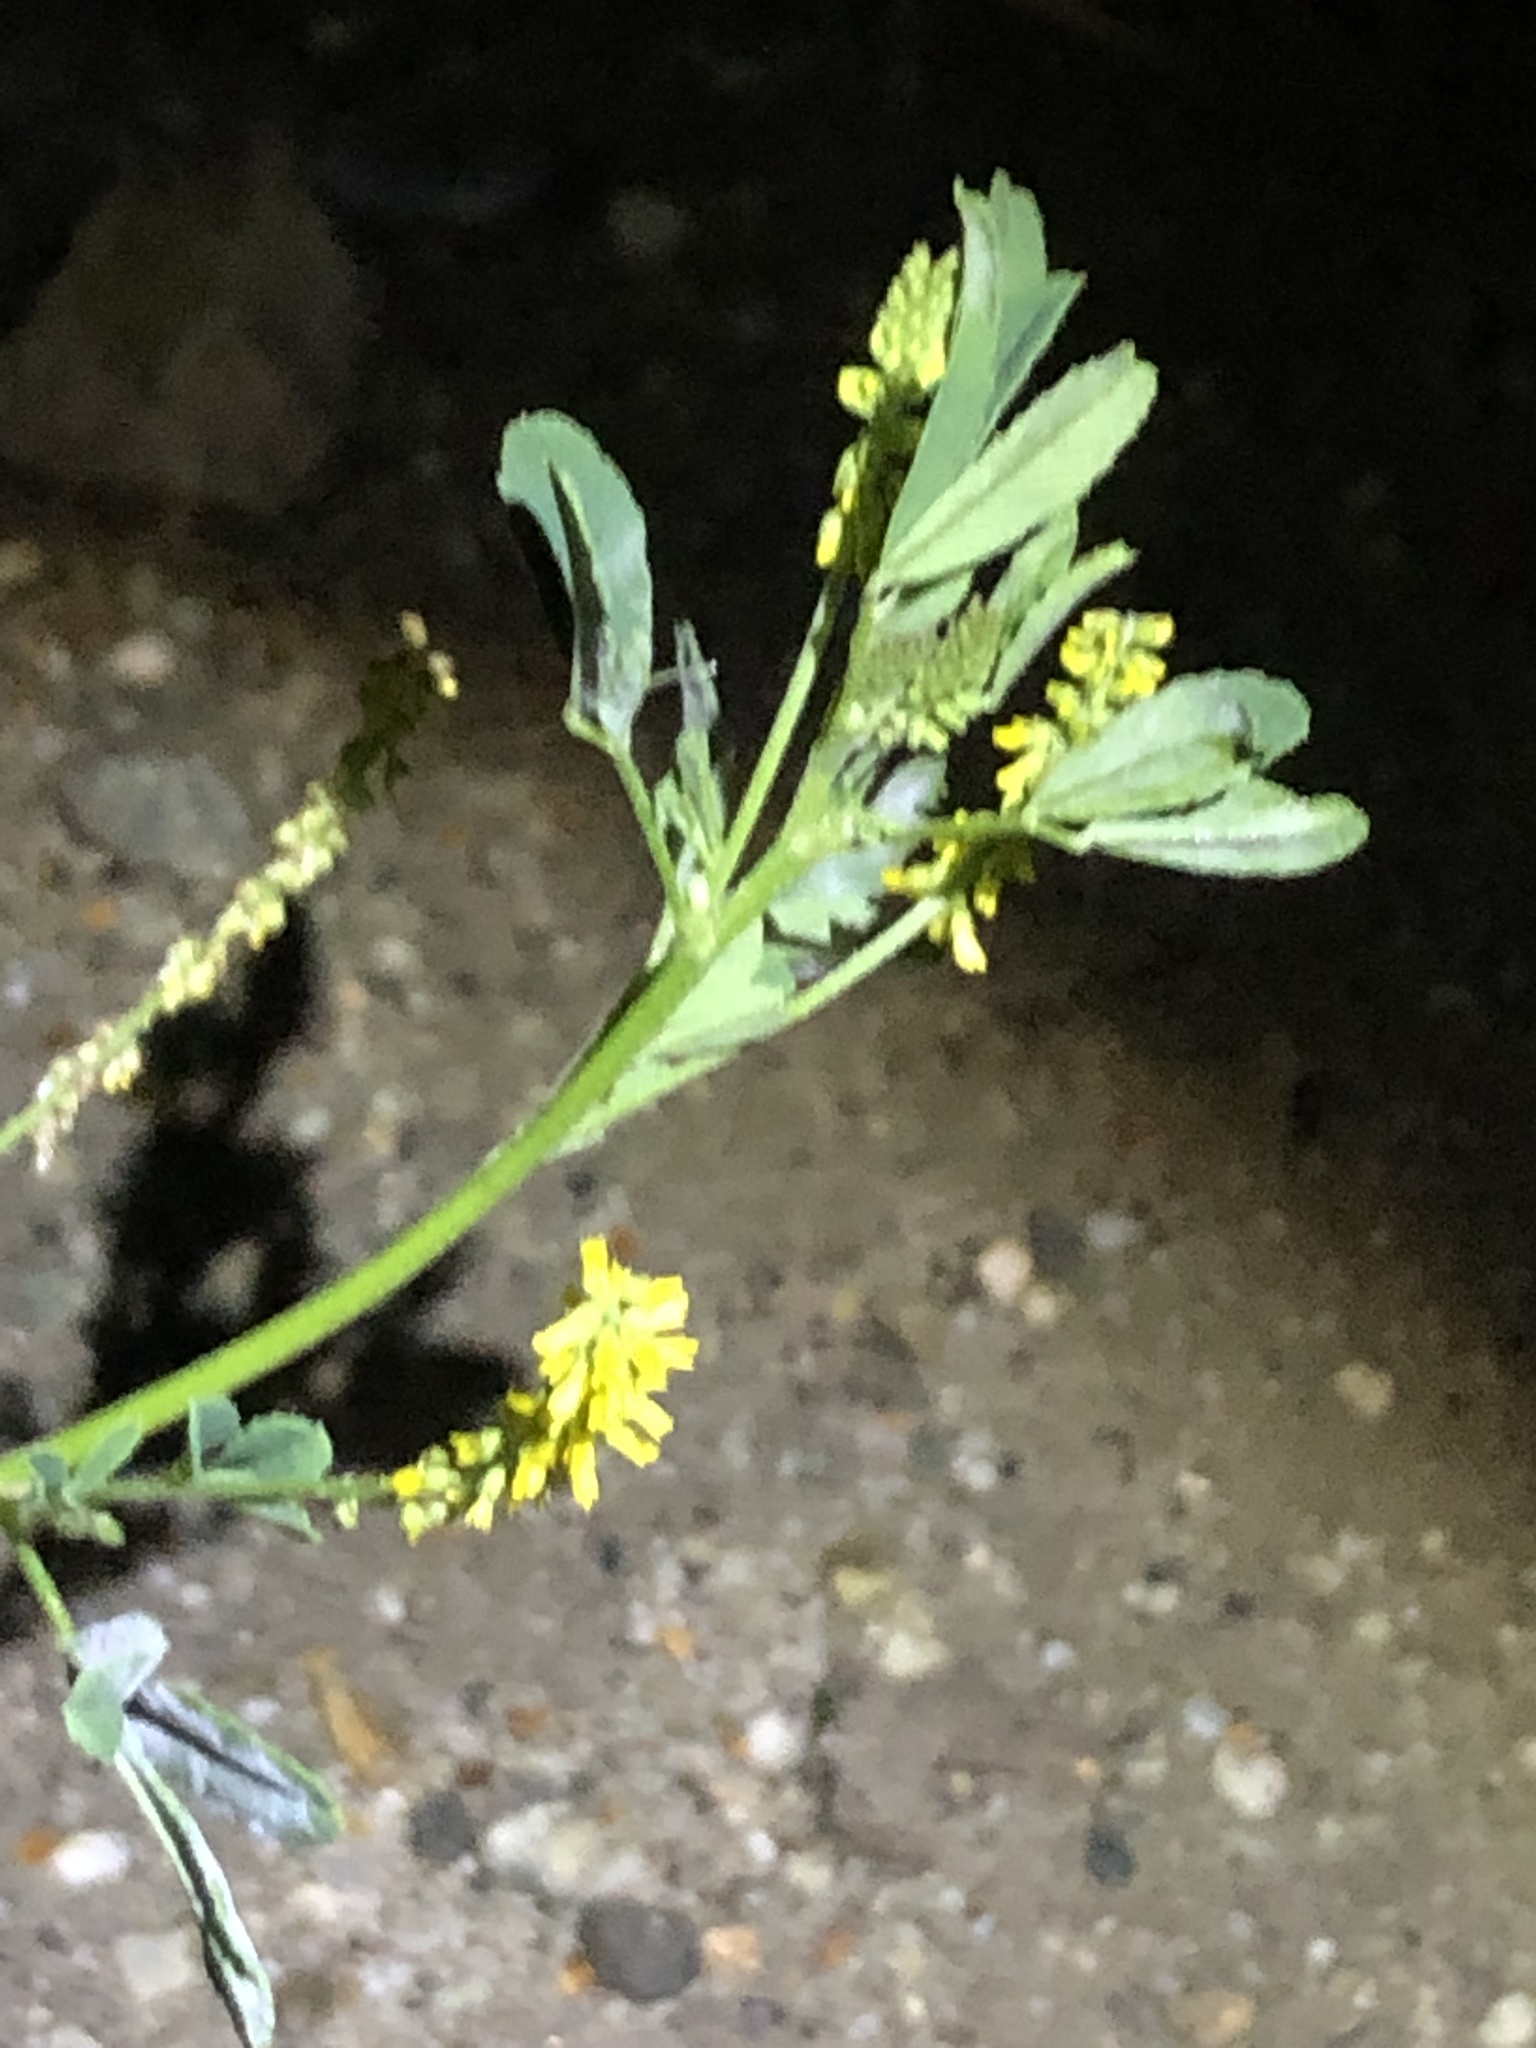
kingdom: Plantae
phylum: Tracheophyta
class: Magnoliopsida
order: Fabales
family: Fabaceae
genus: Melilotus
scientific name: Melilotus indicus
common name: Small melilot
